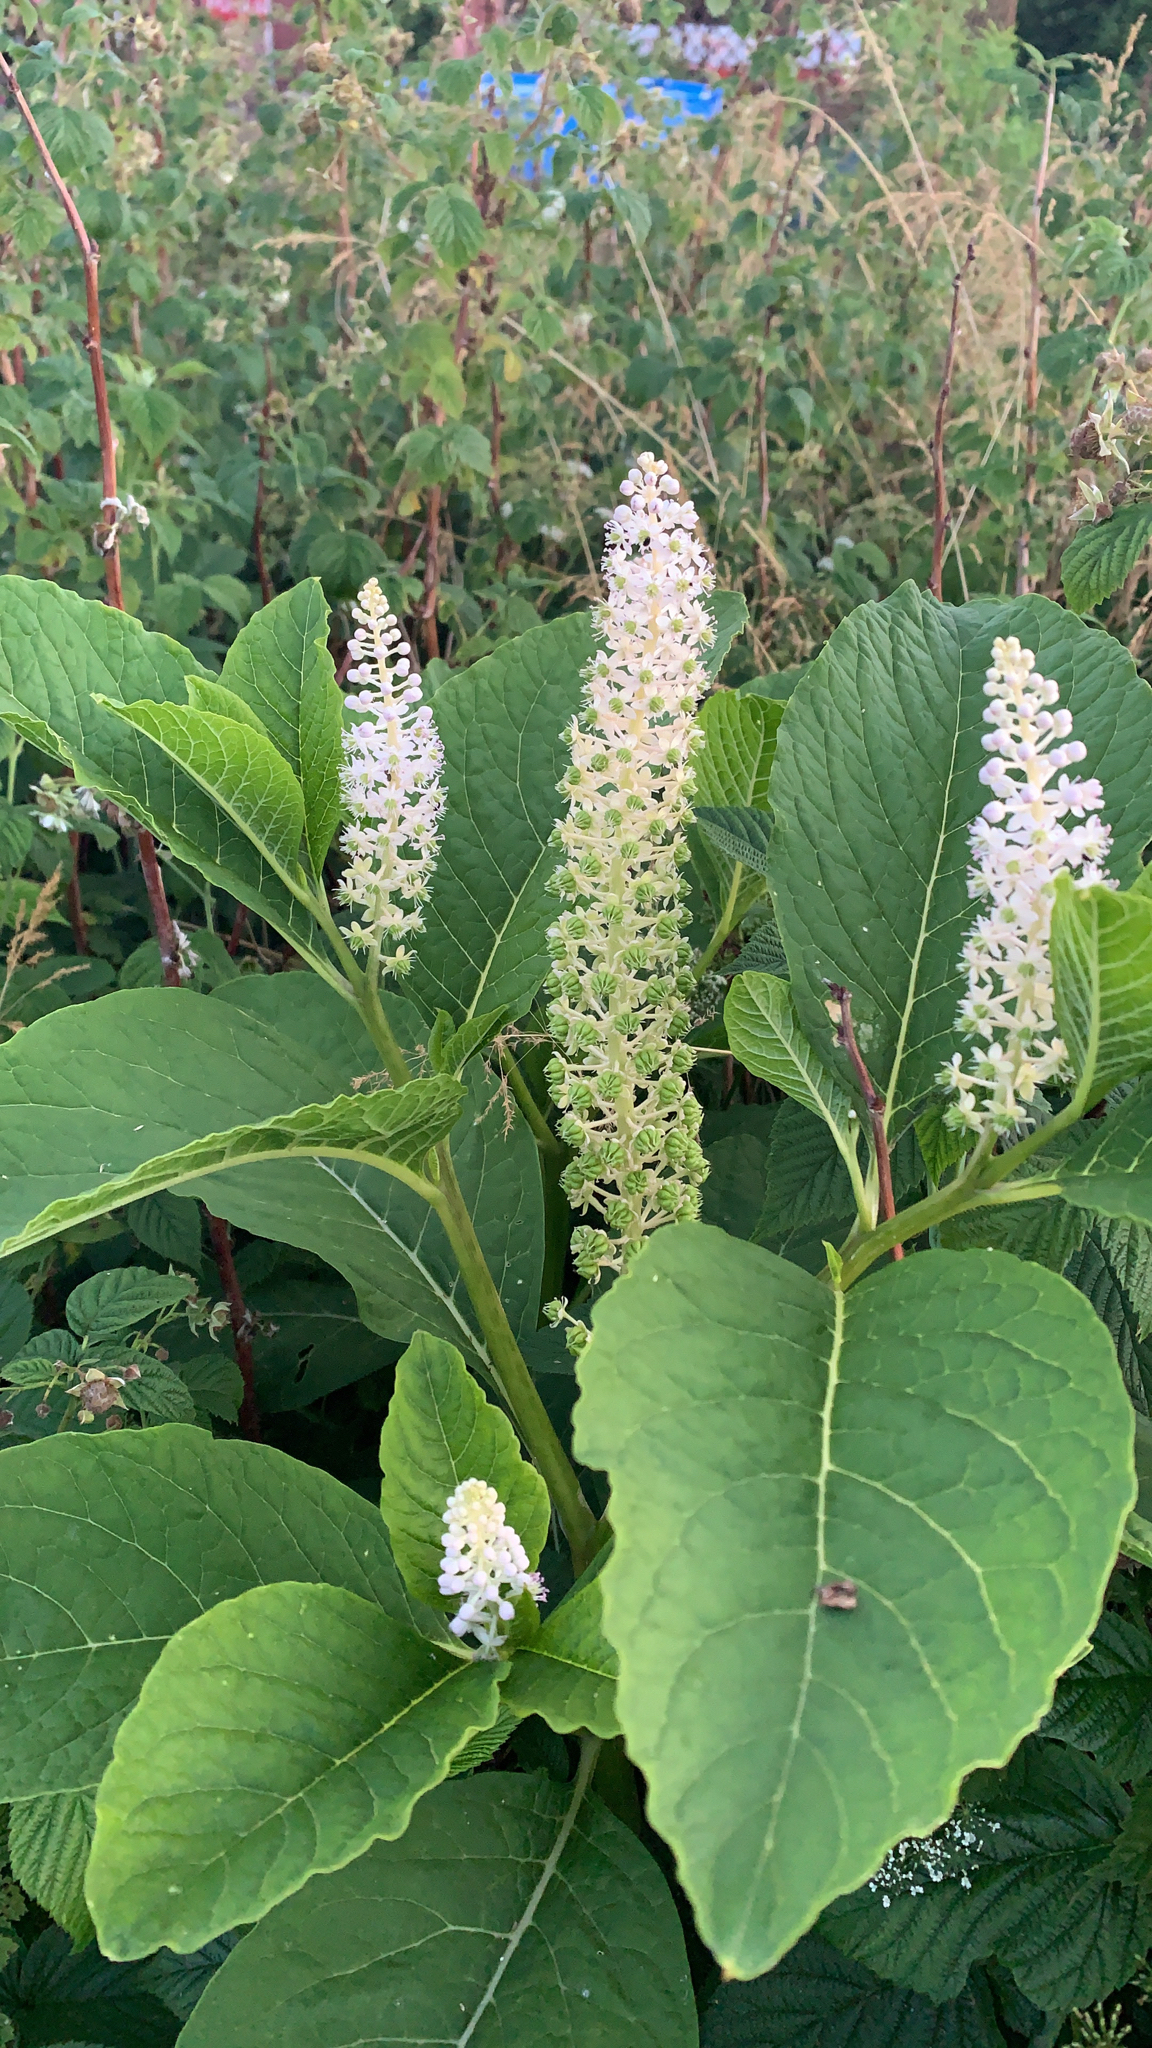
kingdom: Plantae
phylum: Tracheophyta
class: Magnoliopsida
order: Caryophyllales
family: Phytolaccaceae
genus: Phytolacca
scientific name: Phytolacca acinosa
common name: Indian pokeweed
